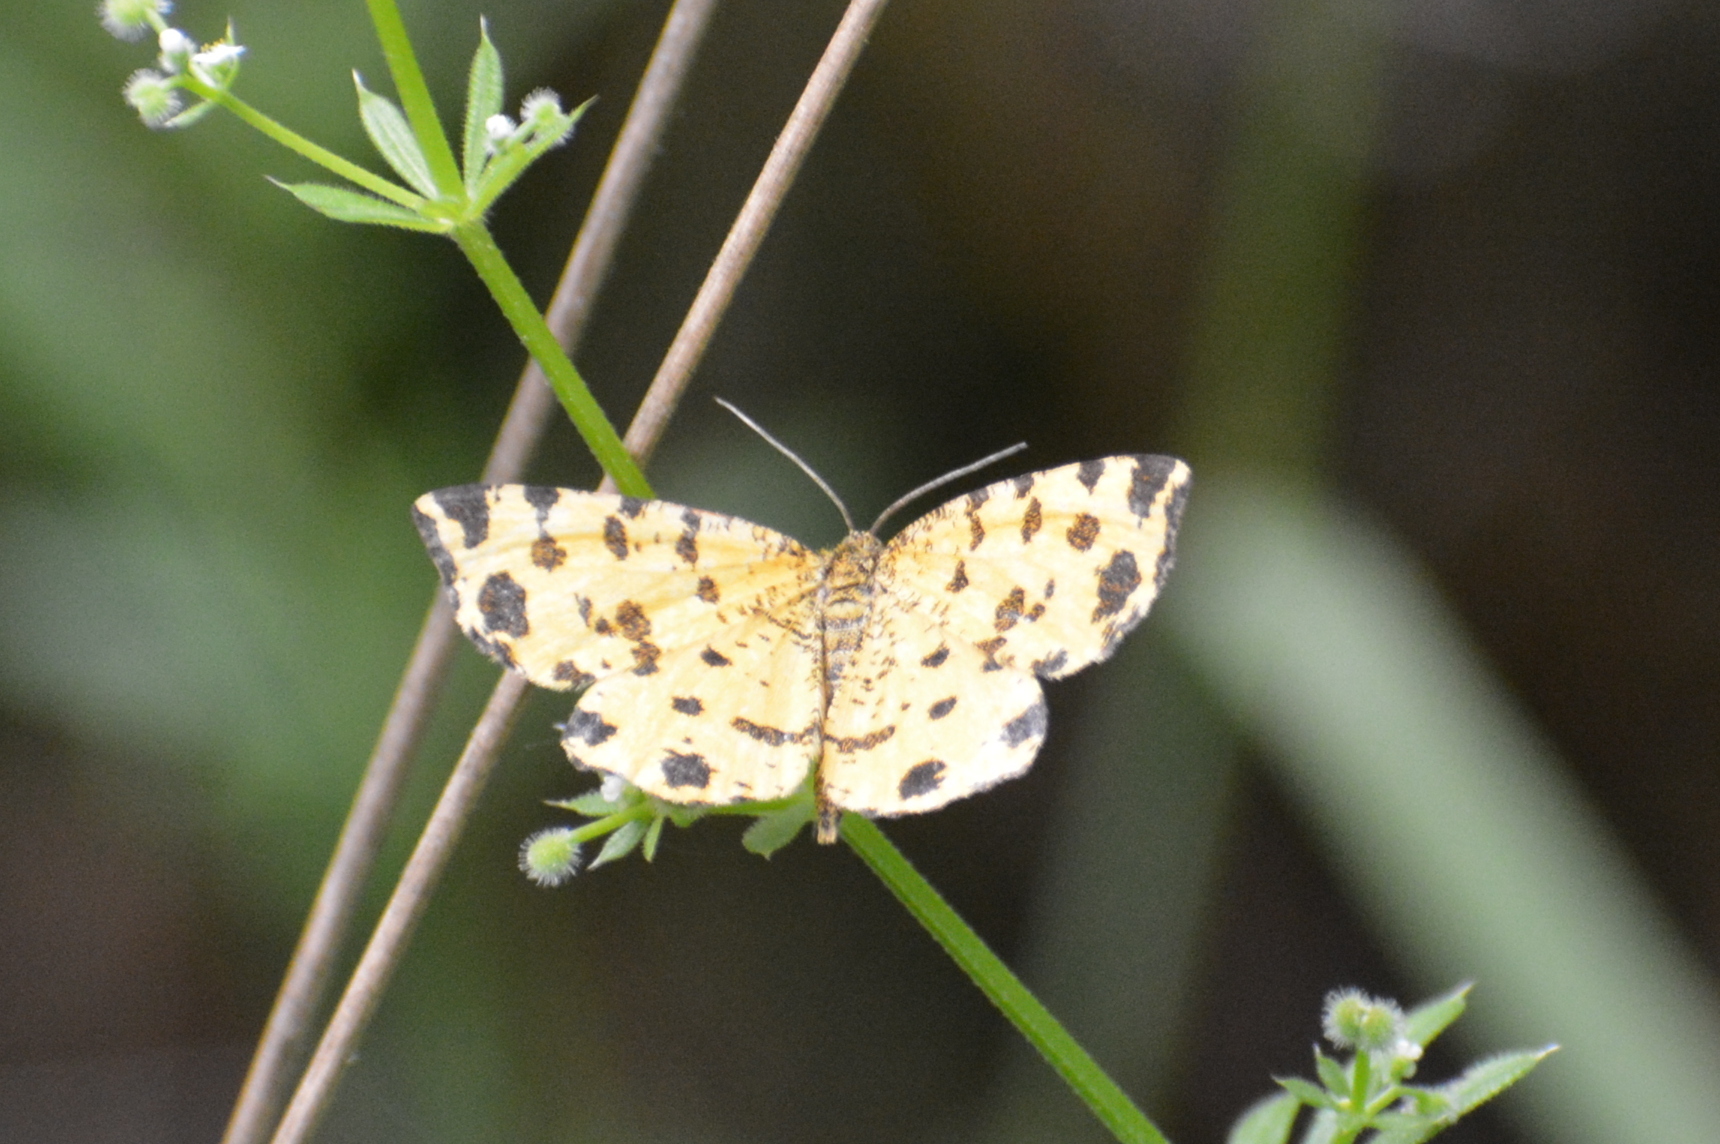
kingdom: Animalia
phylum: Arthropoda
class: Insecta
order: Lepidoptera
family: Geometridae
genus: Pseudopanthera
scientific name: Pseudopanthera macularia
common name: Speckled yellow
